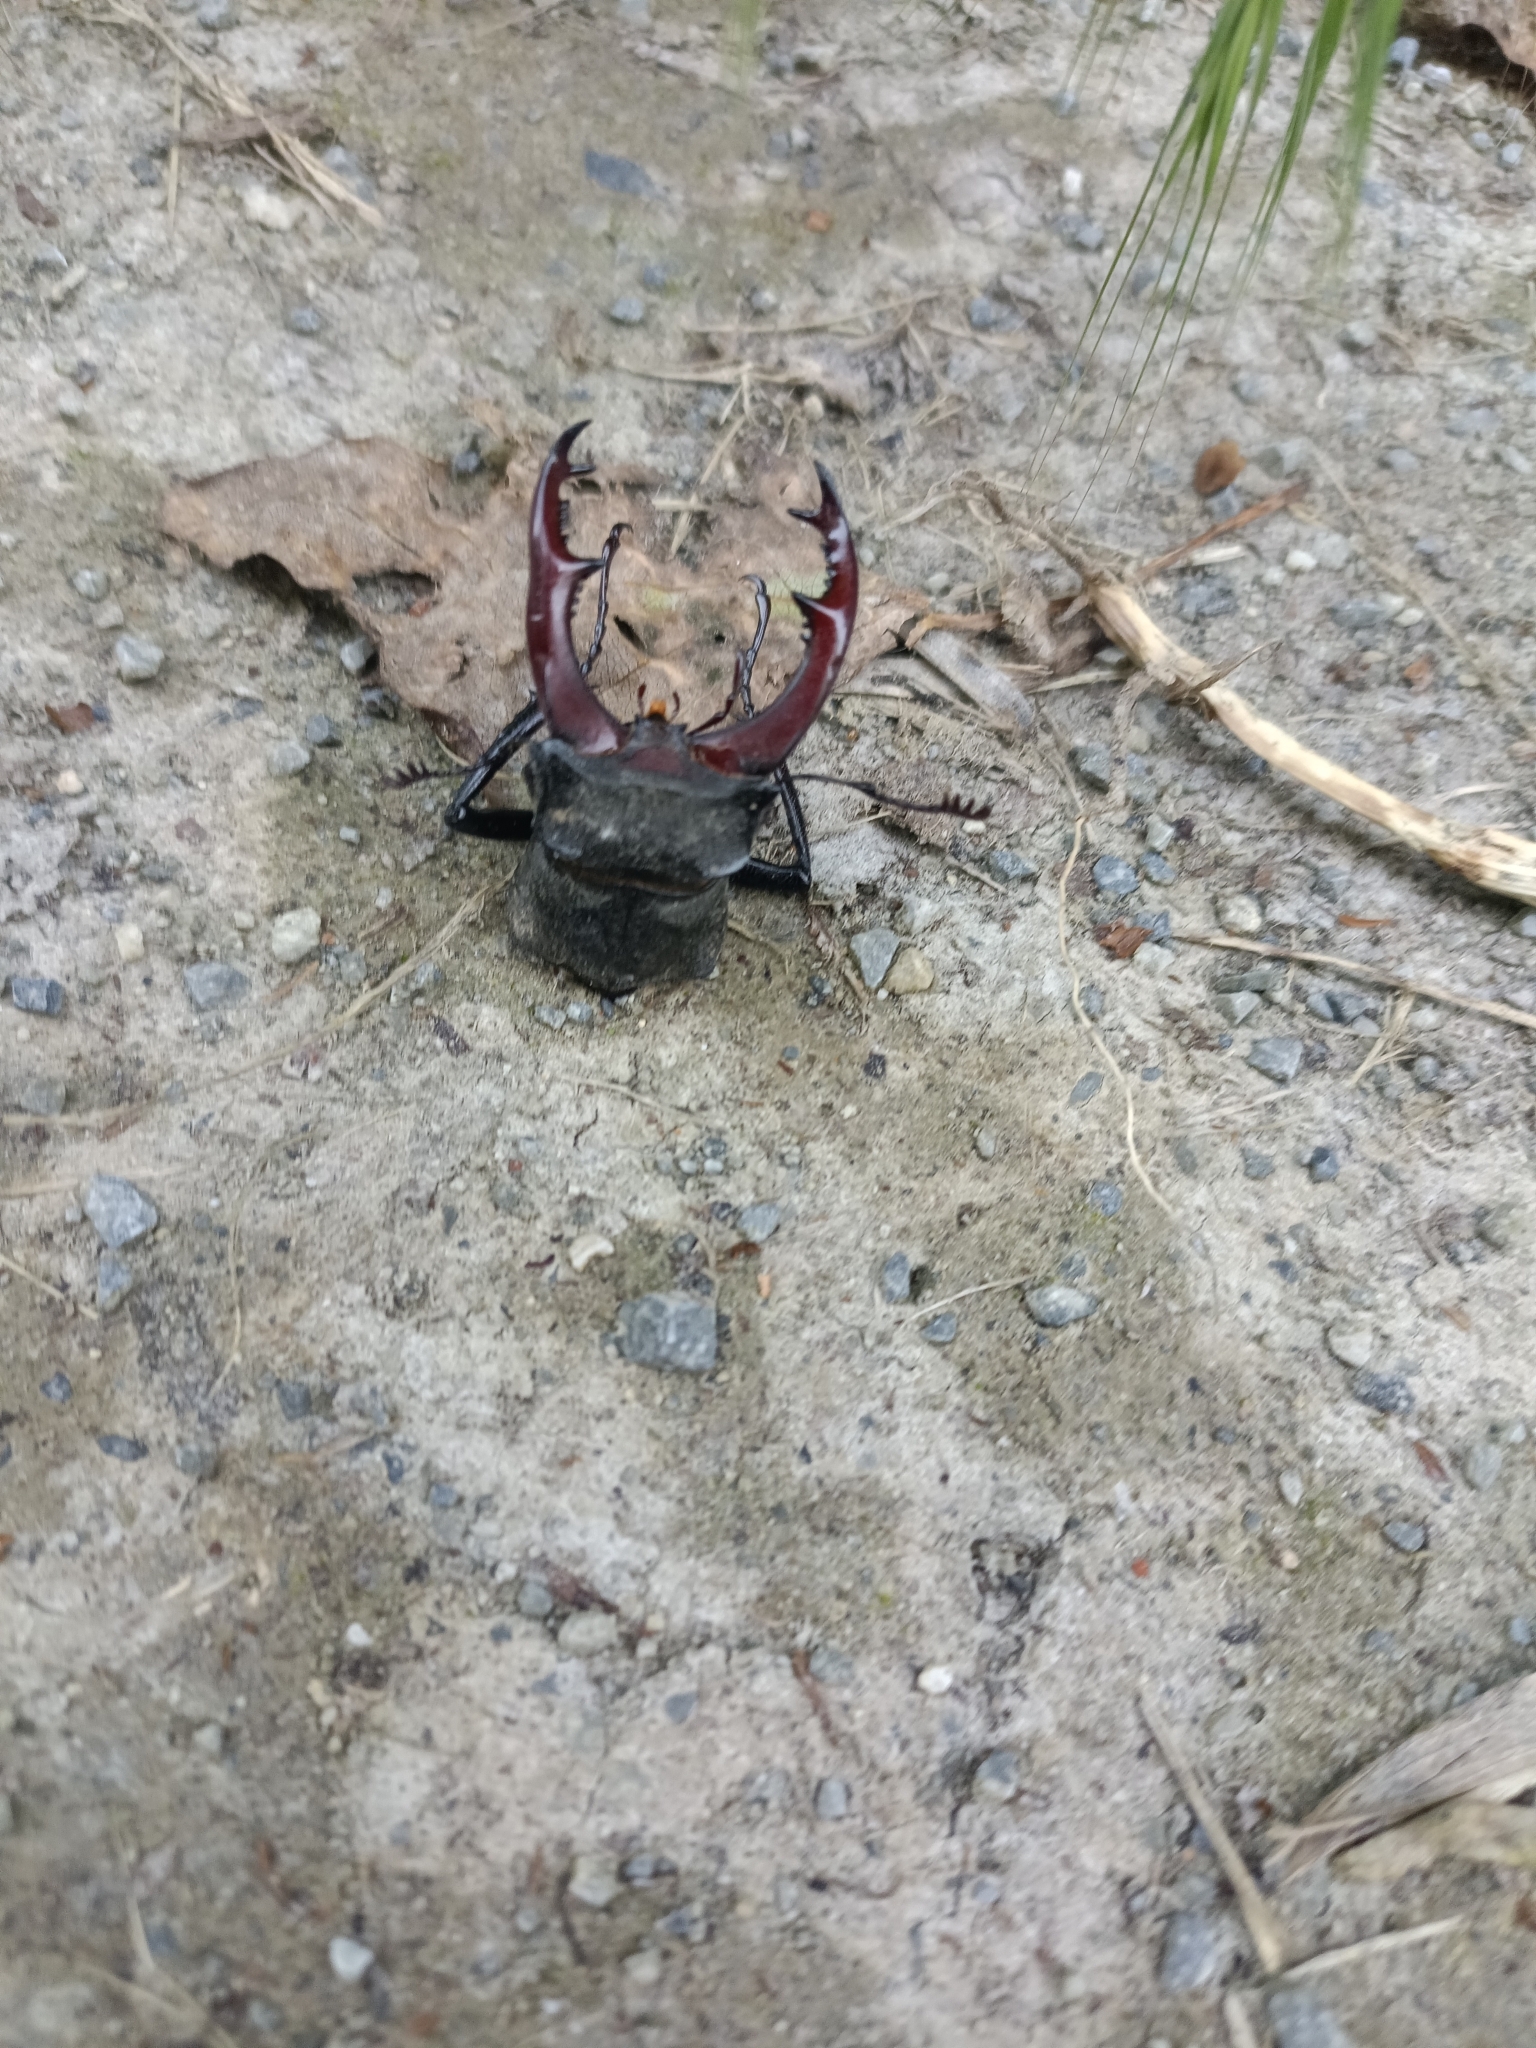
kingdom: Animalia
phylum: Arthropoda
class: Insecta
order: Coleoptera
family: Lucanidae
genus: Lucanus
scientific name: Lucanus cervus
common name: Stag beetle
